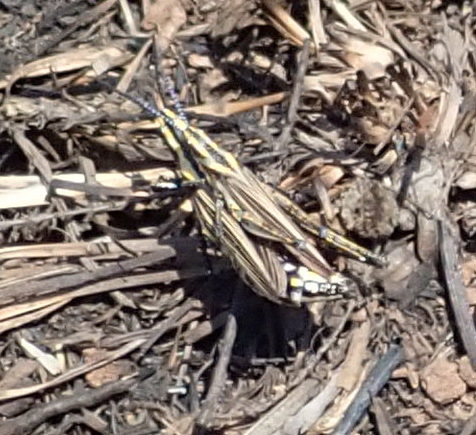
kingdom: Animalia
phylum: Arthropoda
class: Insecta
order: Orthoptera
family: Pyrgomorphidae
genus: Ochrophlebia
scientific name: Ochrophlebia cafra
